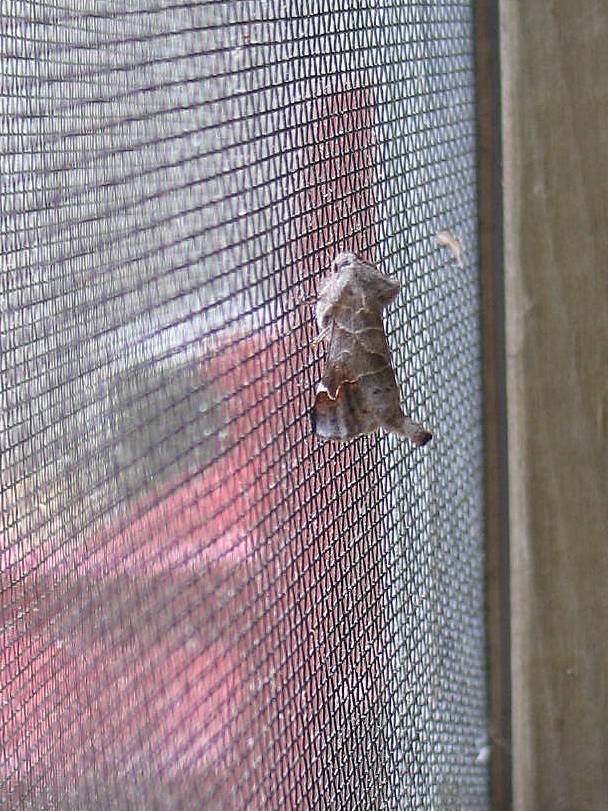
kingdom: Animalia
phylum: Arthropoda
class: Insecta
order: Lepidoptera
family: Notodontidae
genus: Clostera
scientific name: Clostera apicalis
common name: Apical prominent
